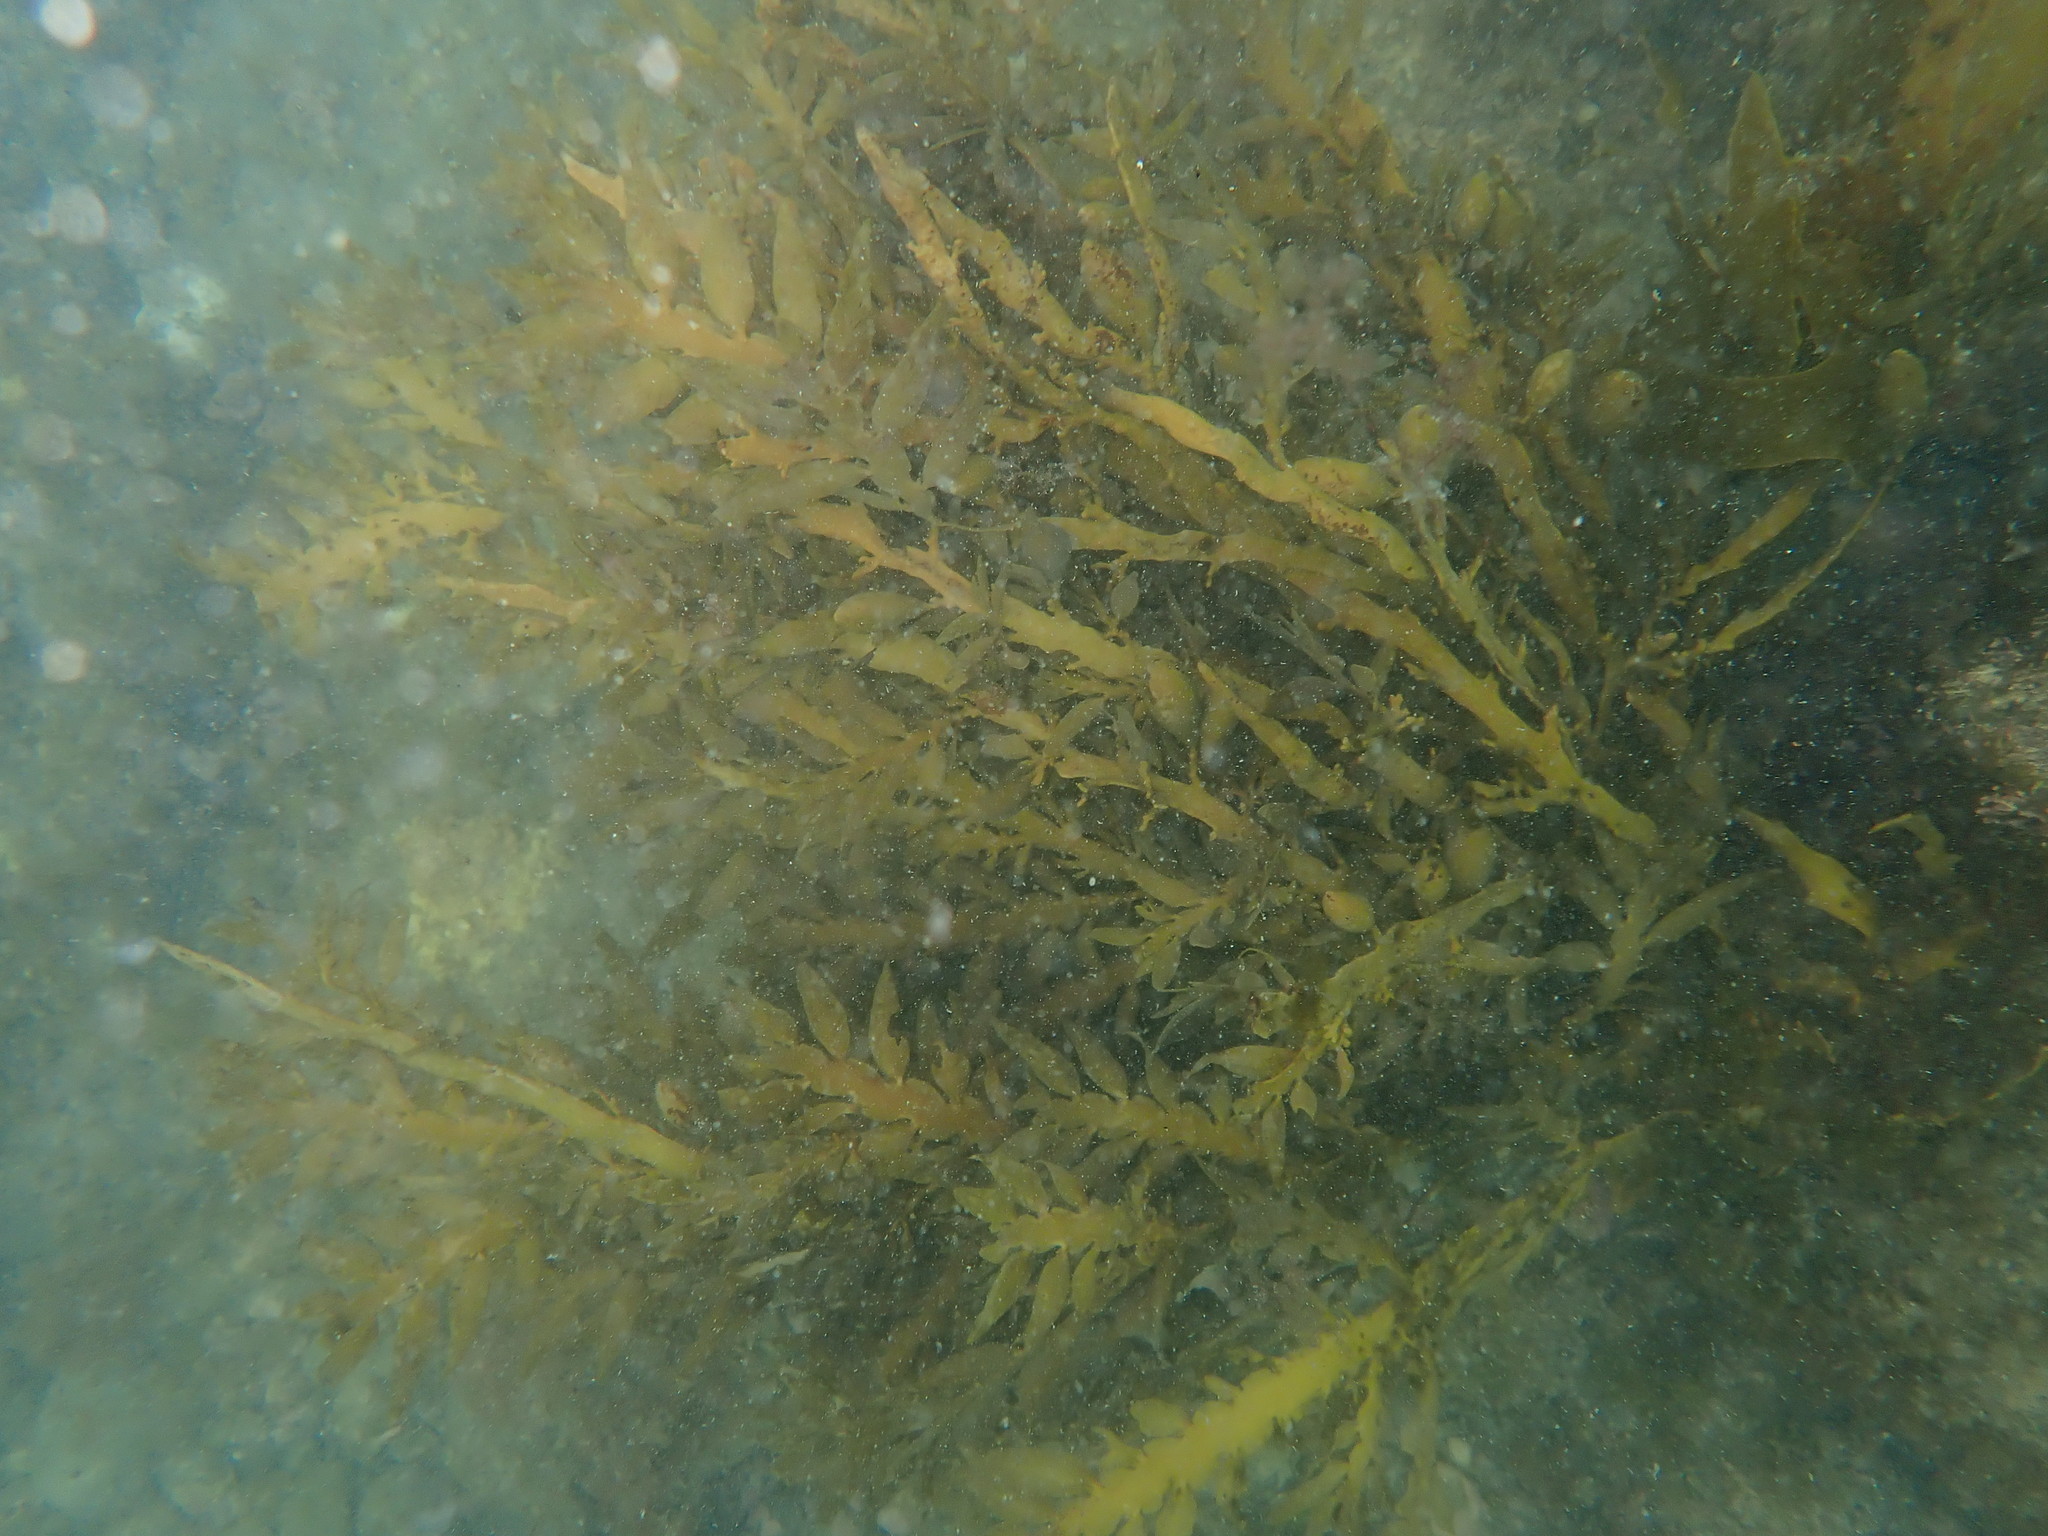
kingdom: Chromista
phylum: Ochrophyta
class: Phaeophyceae
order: Fucales
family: Sargassaceae
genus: Carpophyllum
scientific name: Carpophyllum maschalocarpum
